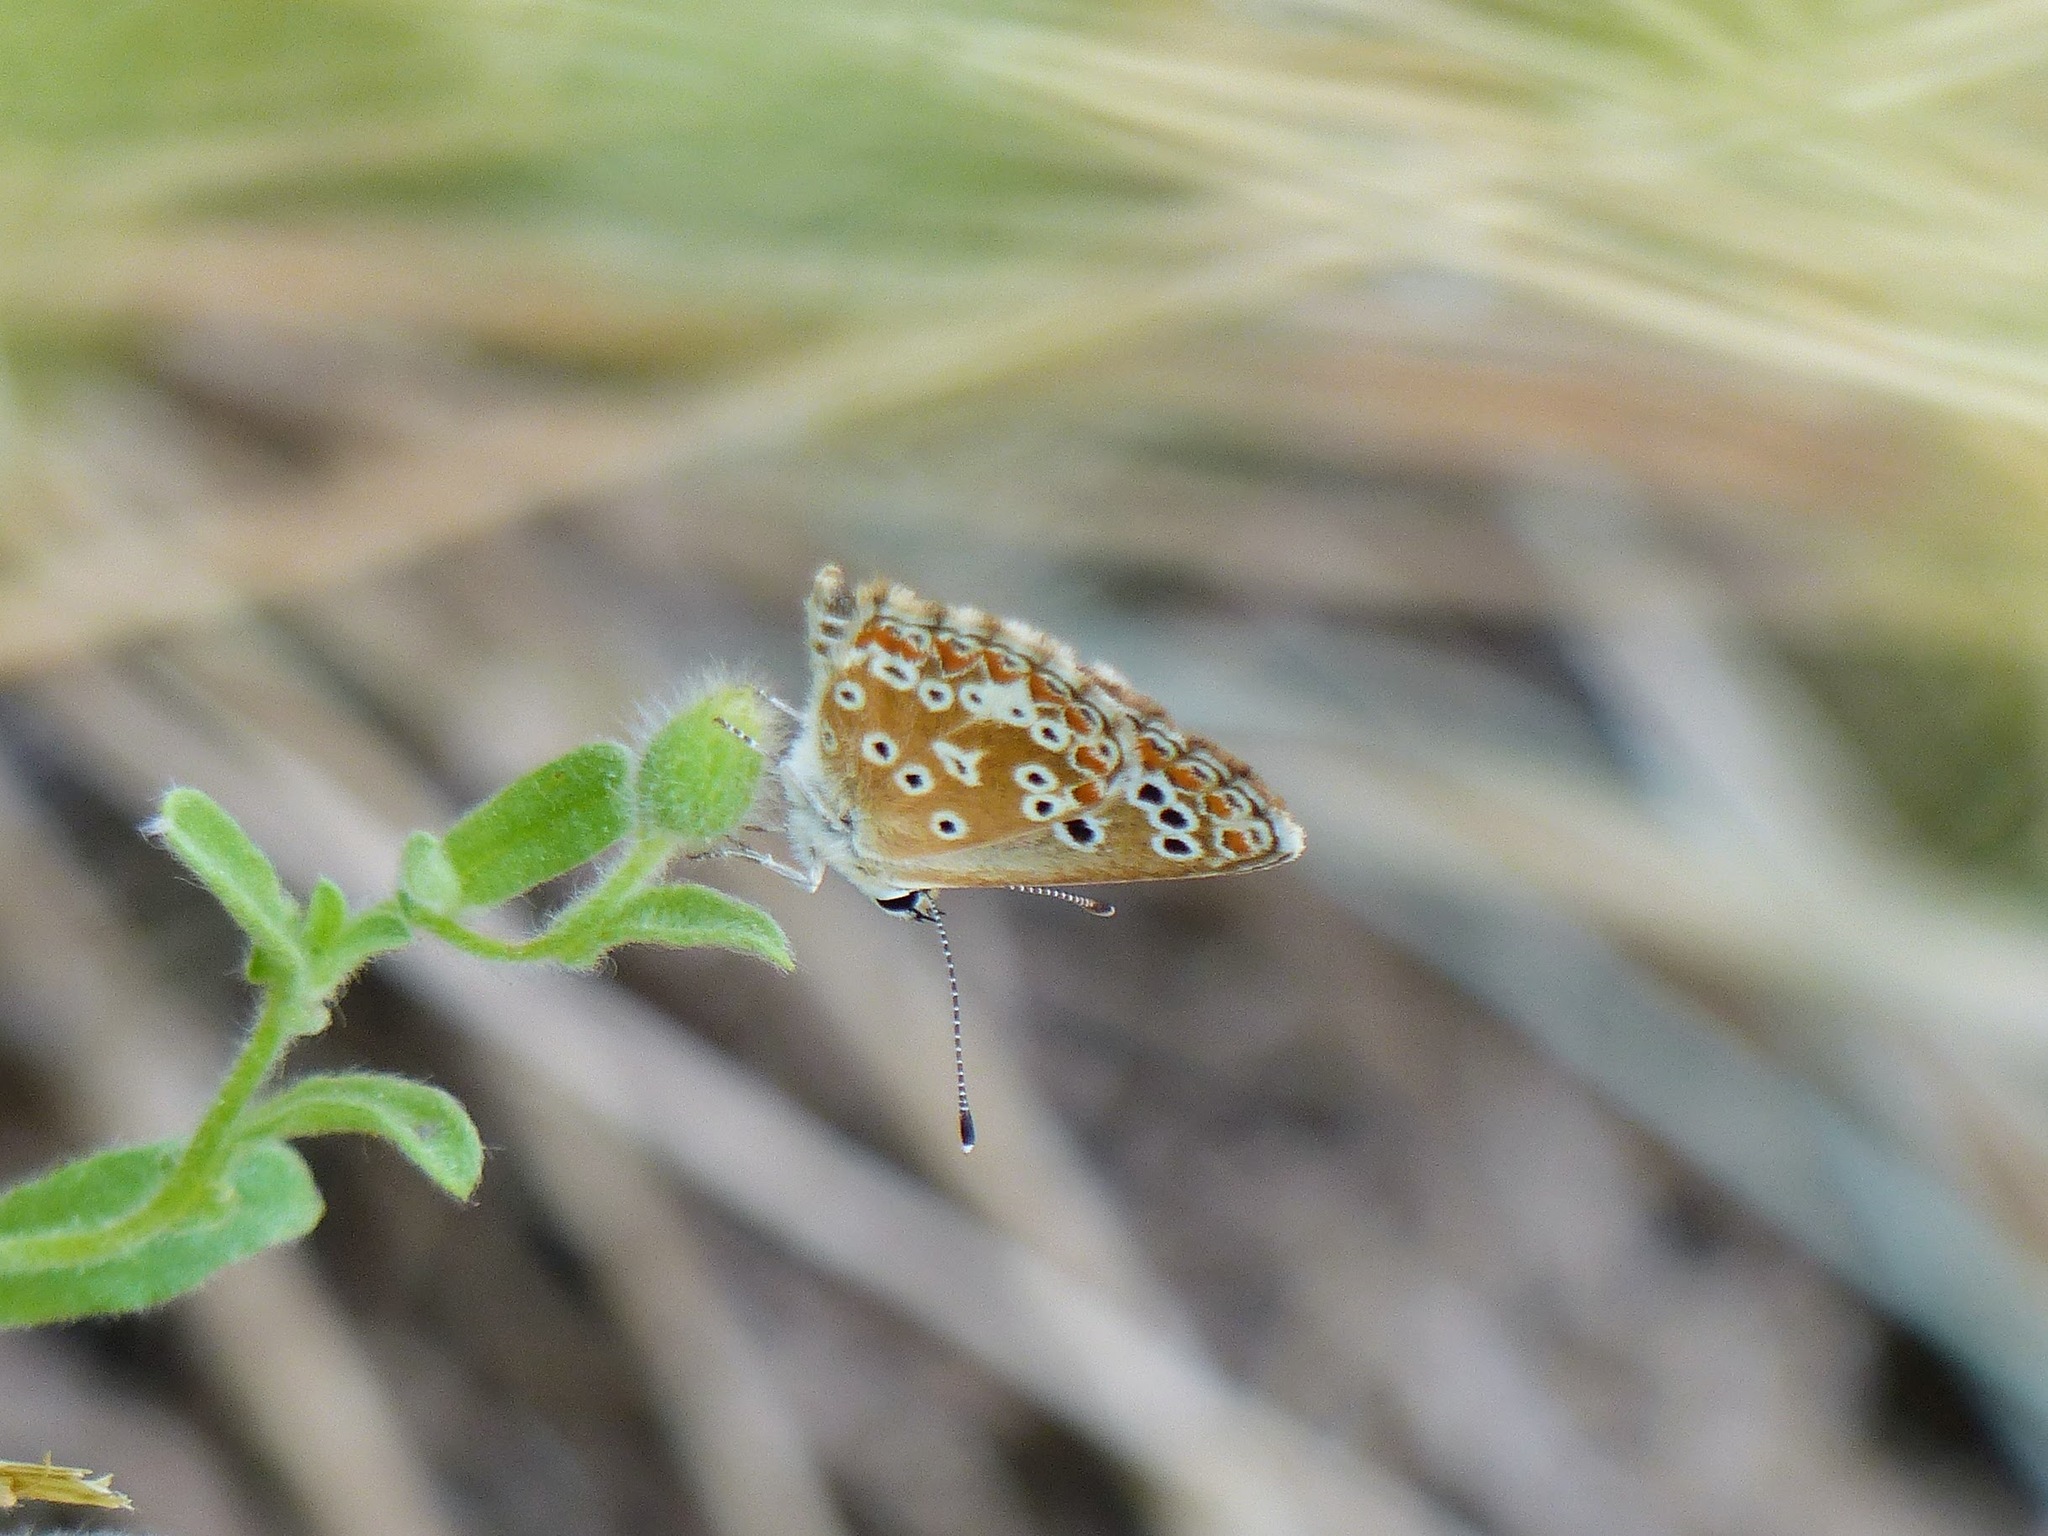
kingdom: Animalia
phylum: Arthropoda
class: Insecta
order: Lepidoptera
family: Lycaenidae
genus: Aricia
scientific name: Aricia cramera
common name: Eschscholtz´s brown  argus
